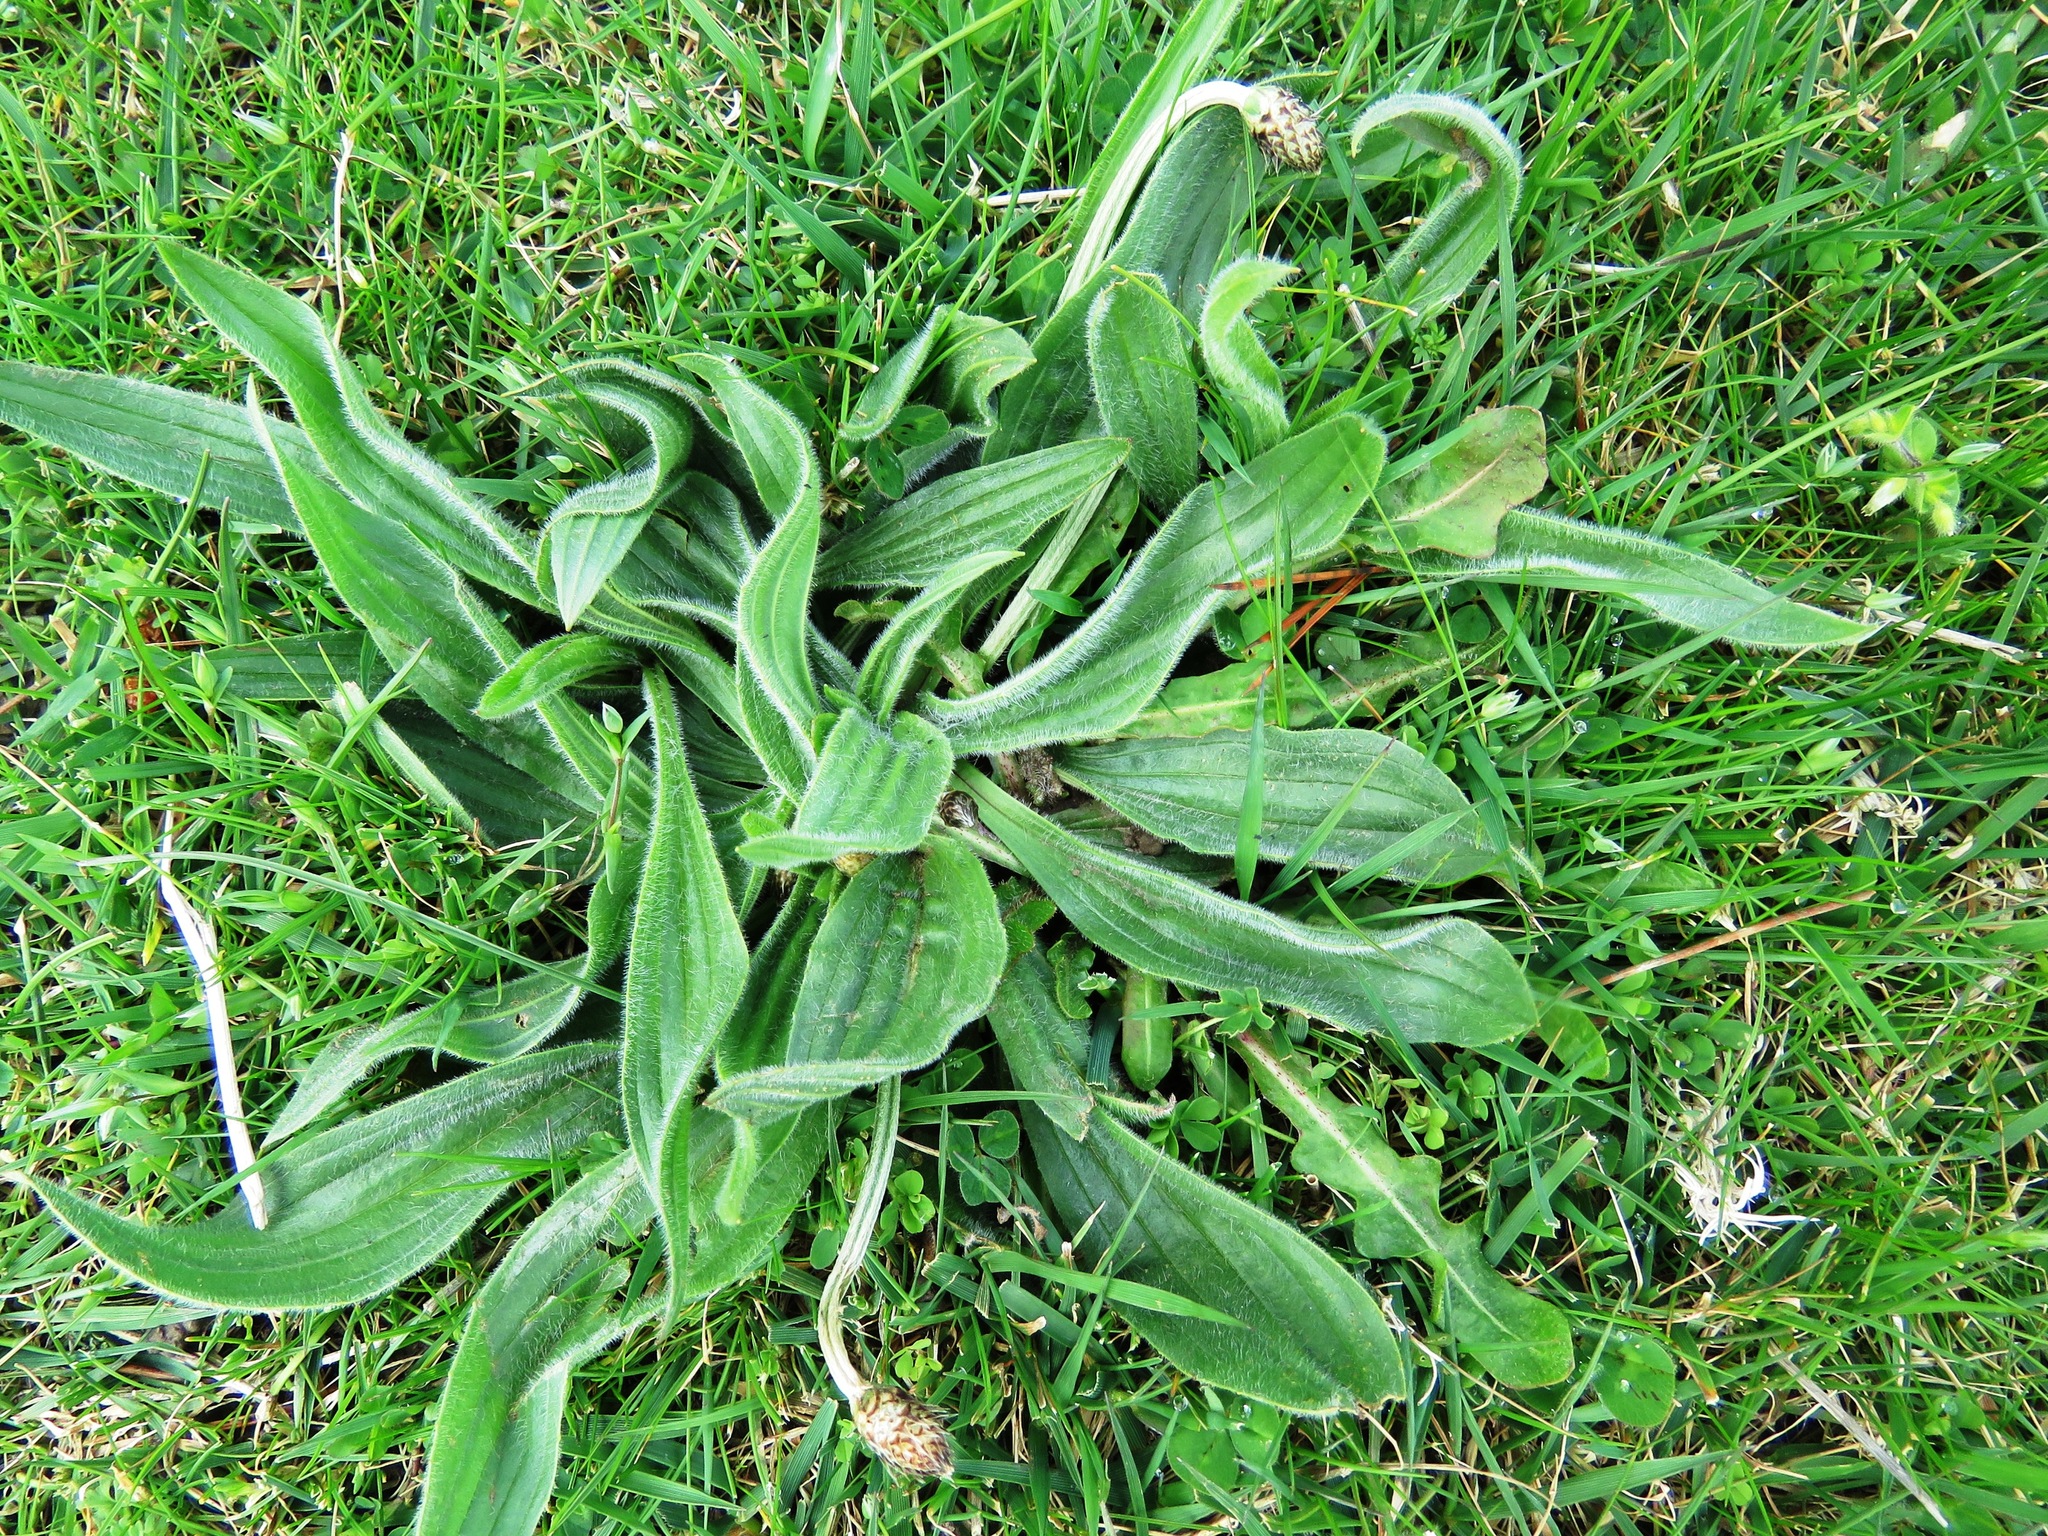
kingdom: Plantae
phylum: Tracheophyta
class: Magnoliopsida
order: Lamiales
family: Plantaginaceae
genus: Plantago
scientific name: Plantago lanceolata
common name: Ribwort plantain
